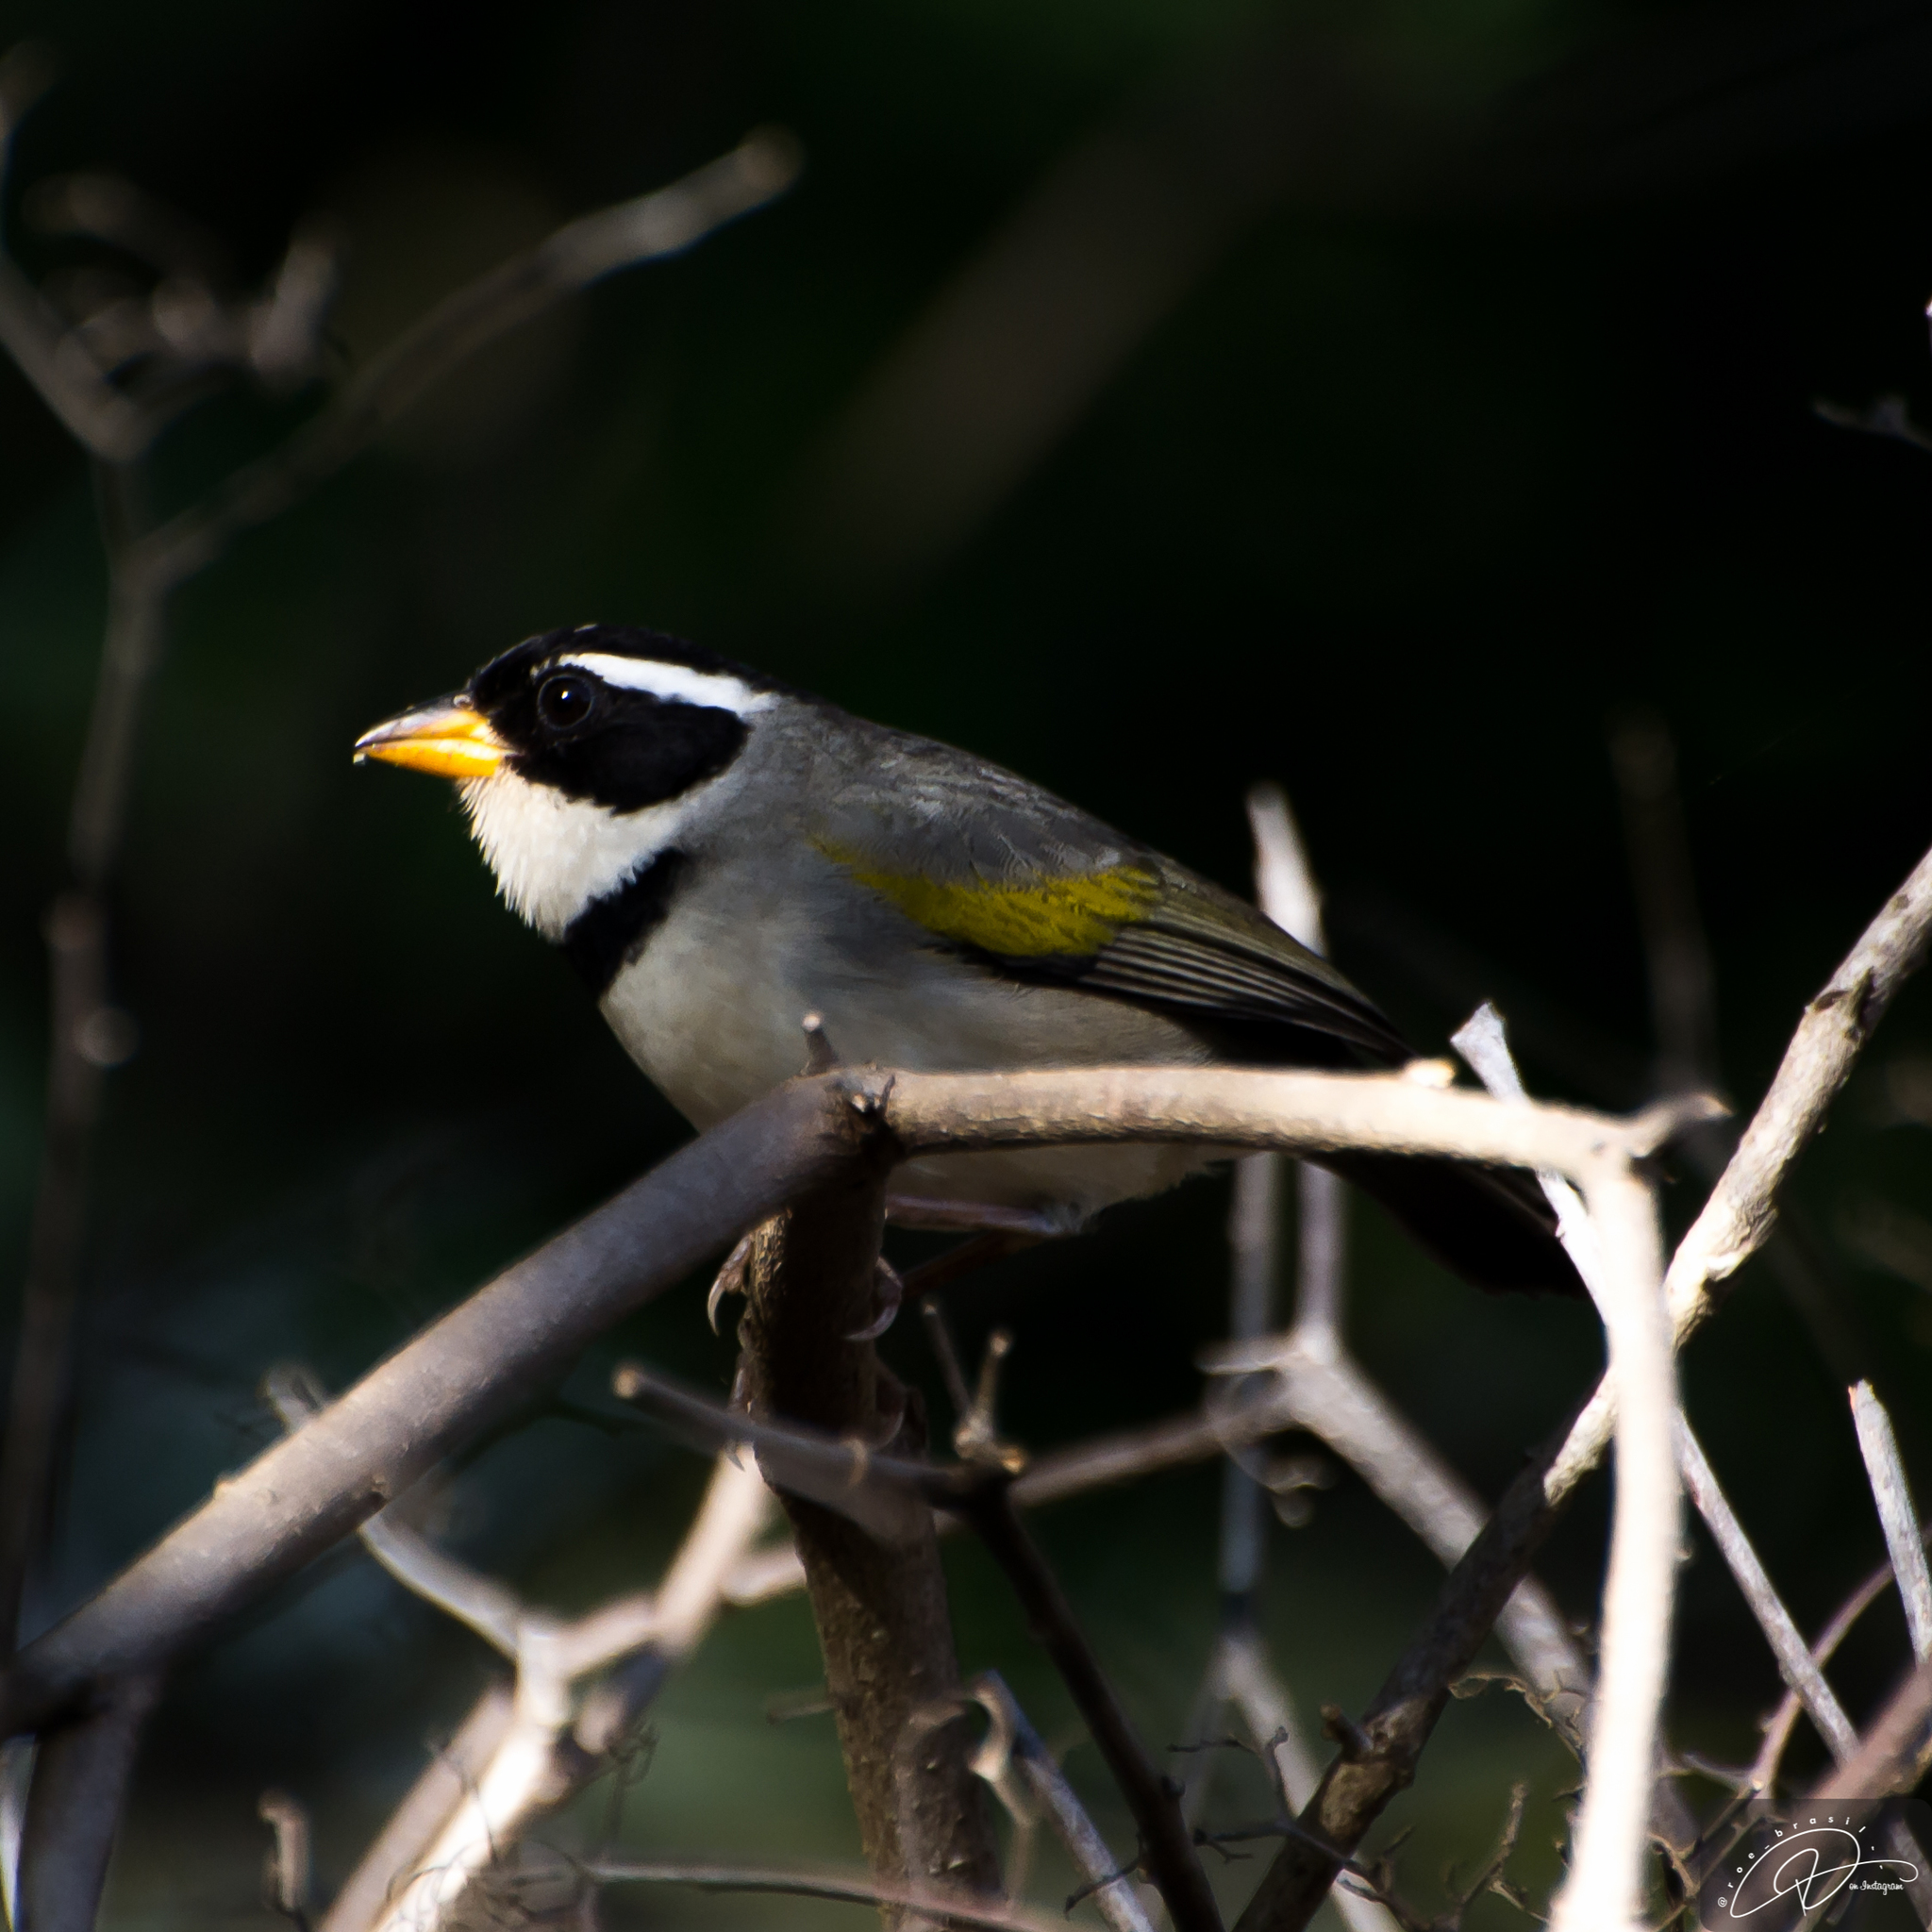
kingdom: Animalia
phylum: Chordata
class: Aves
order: Passeriformes
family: Passerellidae
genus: Arremon
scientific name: Arremon flavirostris
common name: Saffron-billed sparrow
